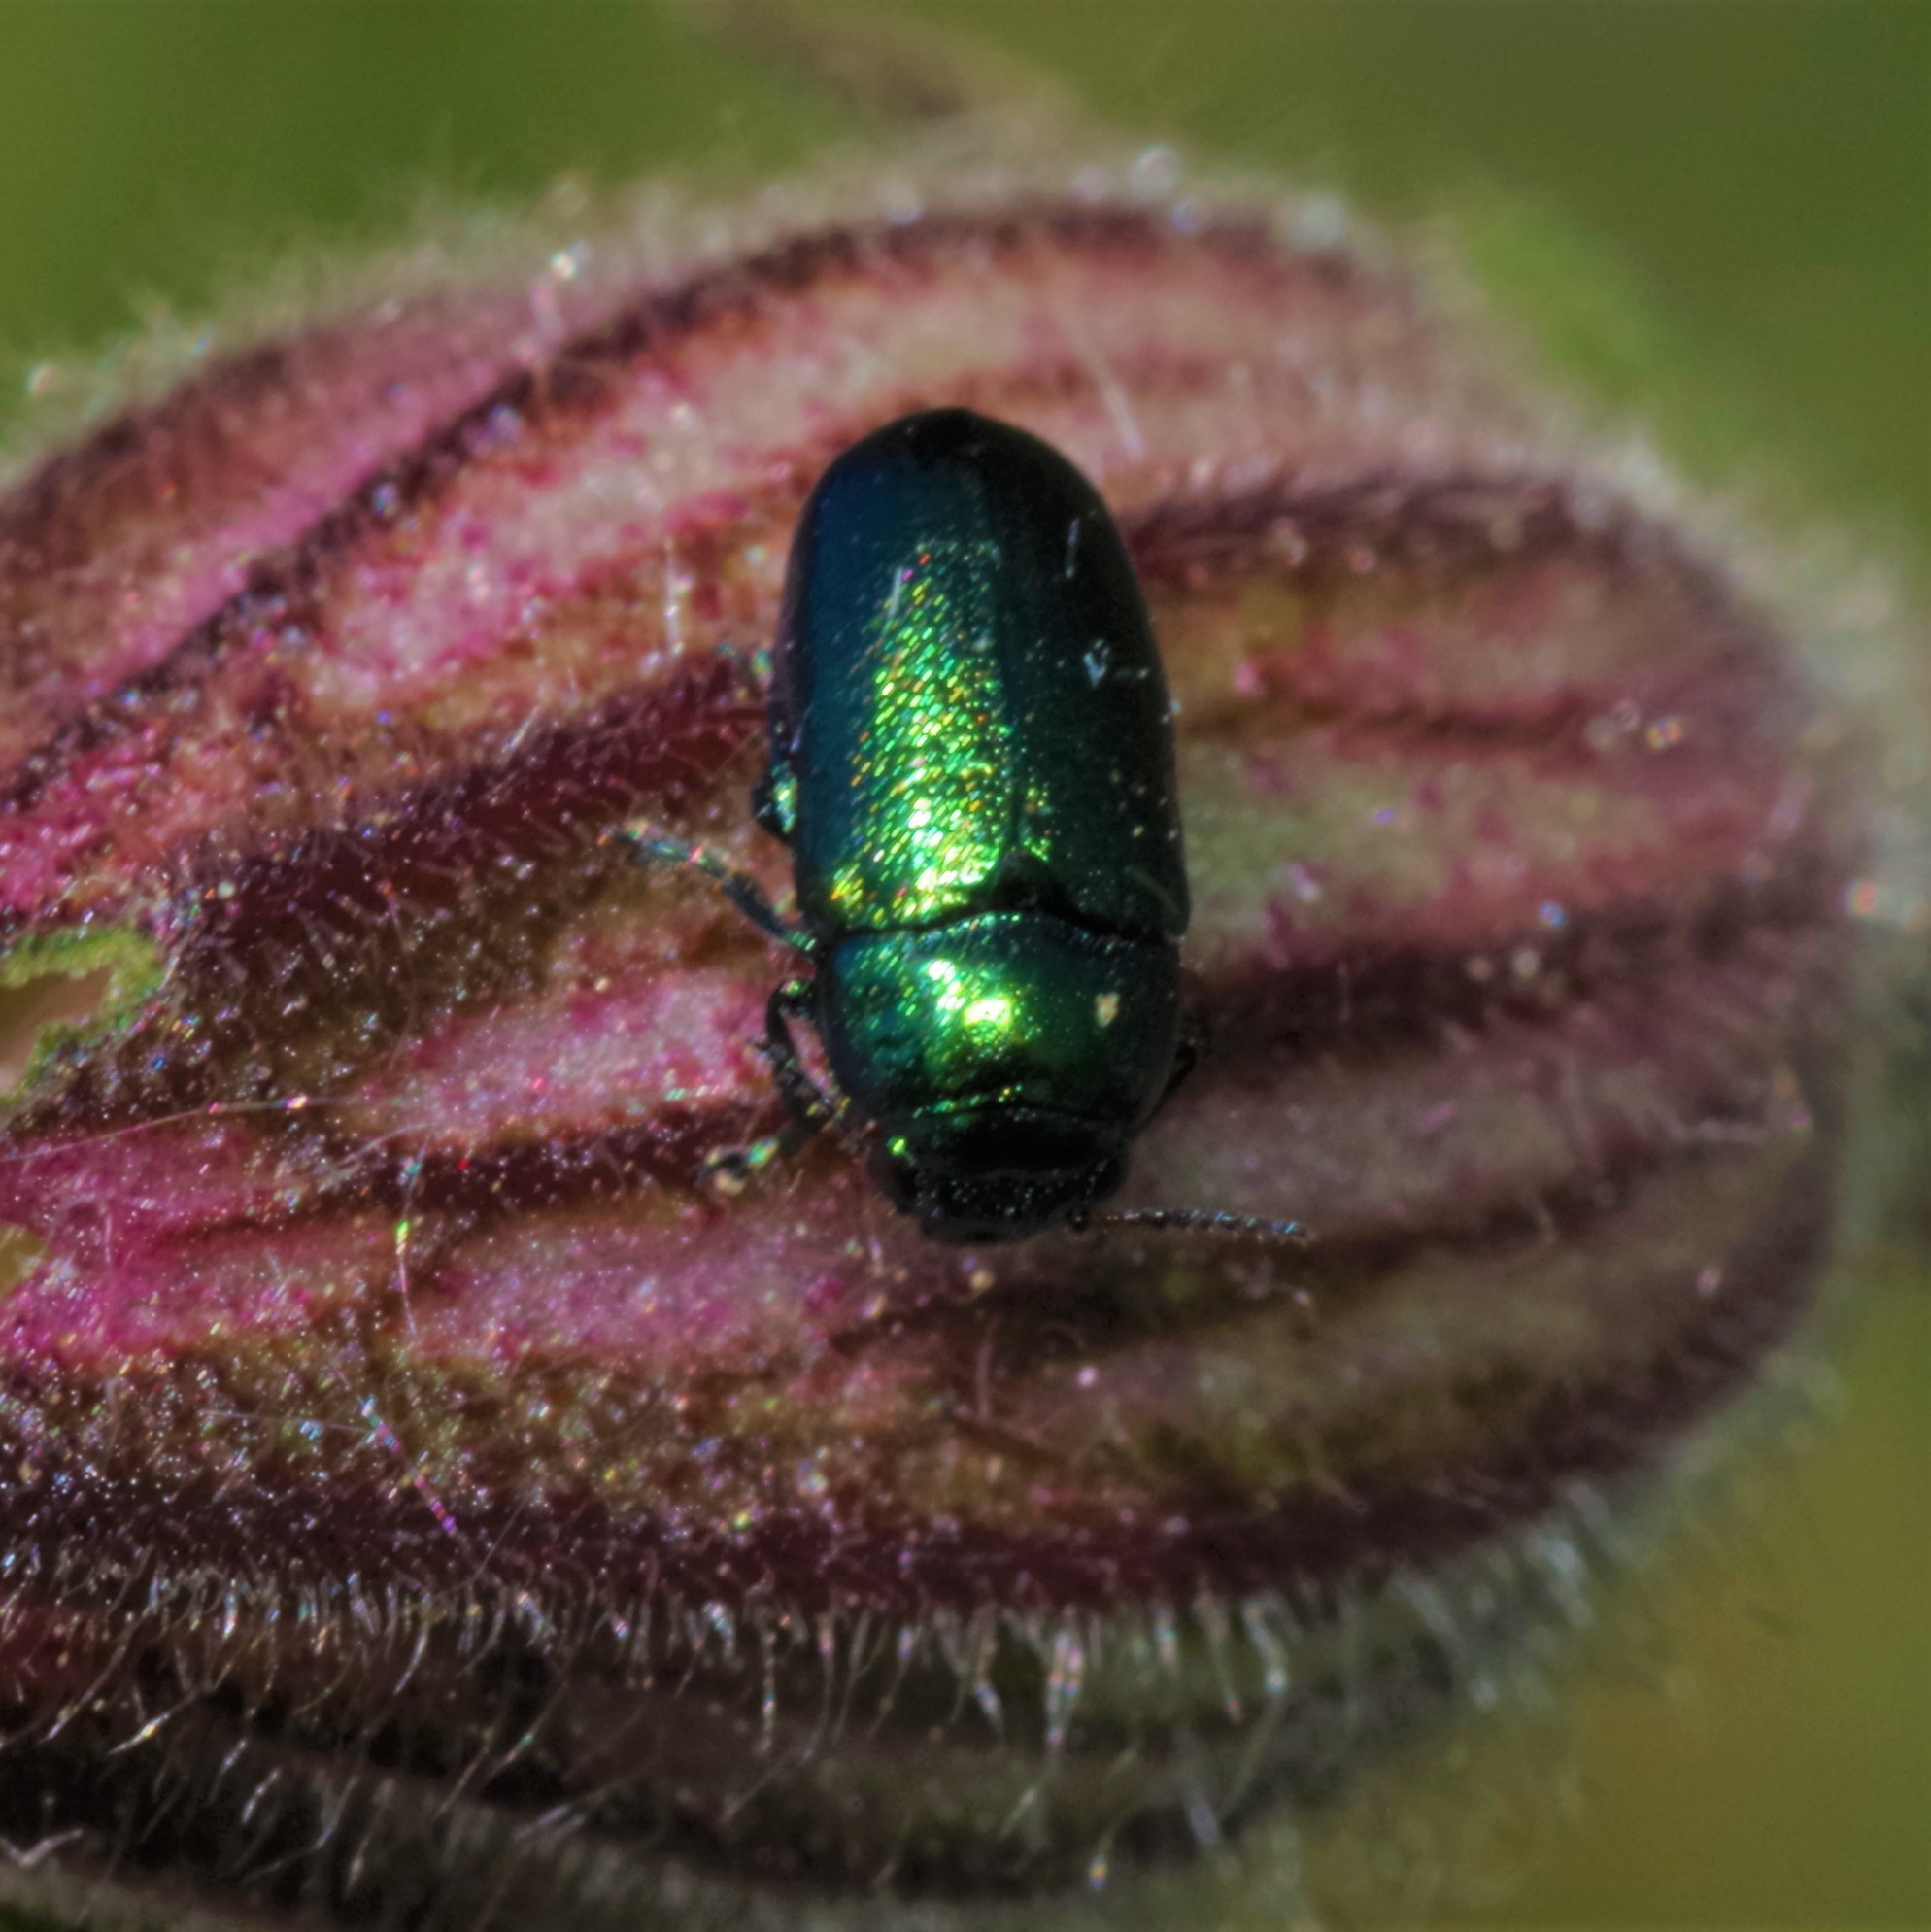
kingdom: Animalia
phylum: Arthropoda
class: Insecta
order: Coleoptera
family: Chrysomelidae
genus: Smaragdina
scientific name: Smaragdina concolor
